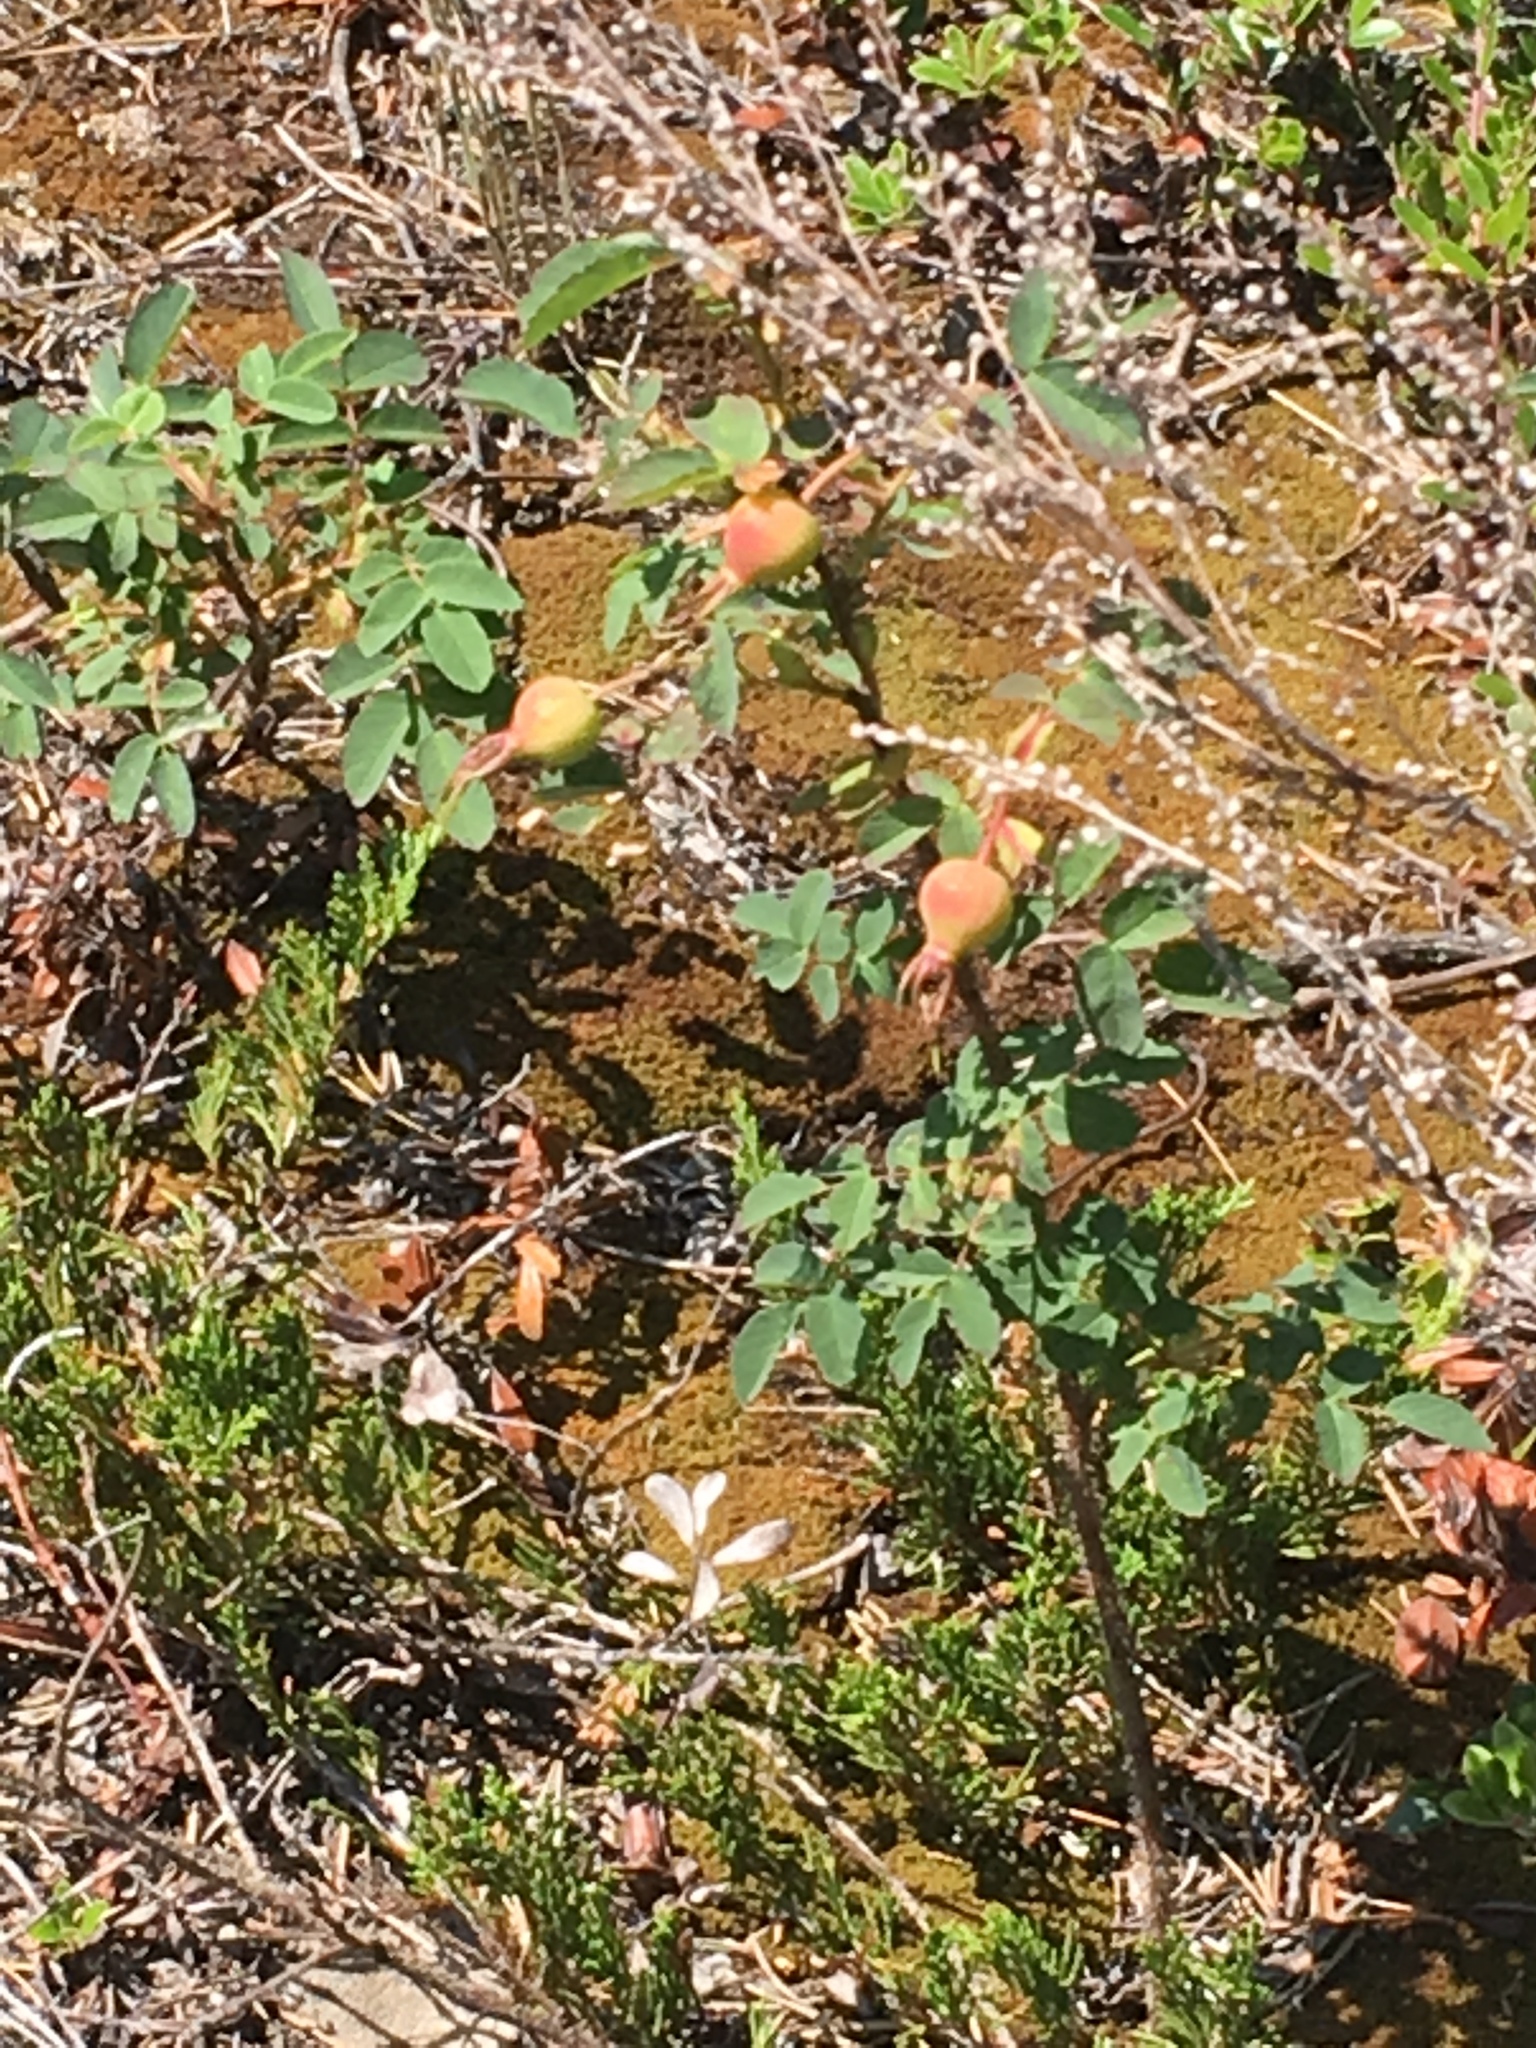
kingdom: Plantae
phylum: Tracheophyta
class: Magnoliopsida
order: Rosales
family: Rosaceae
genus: Rosa
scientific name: Rosa acicularis
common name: Prickly rose
